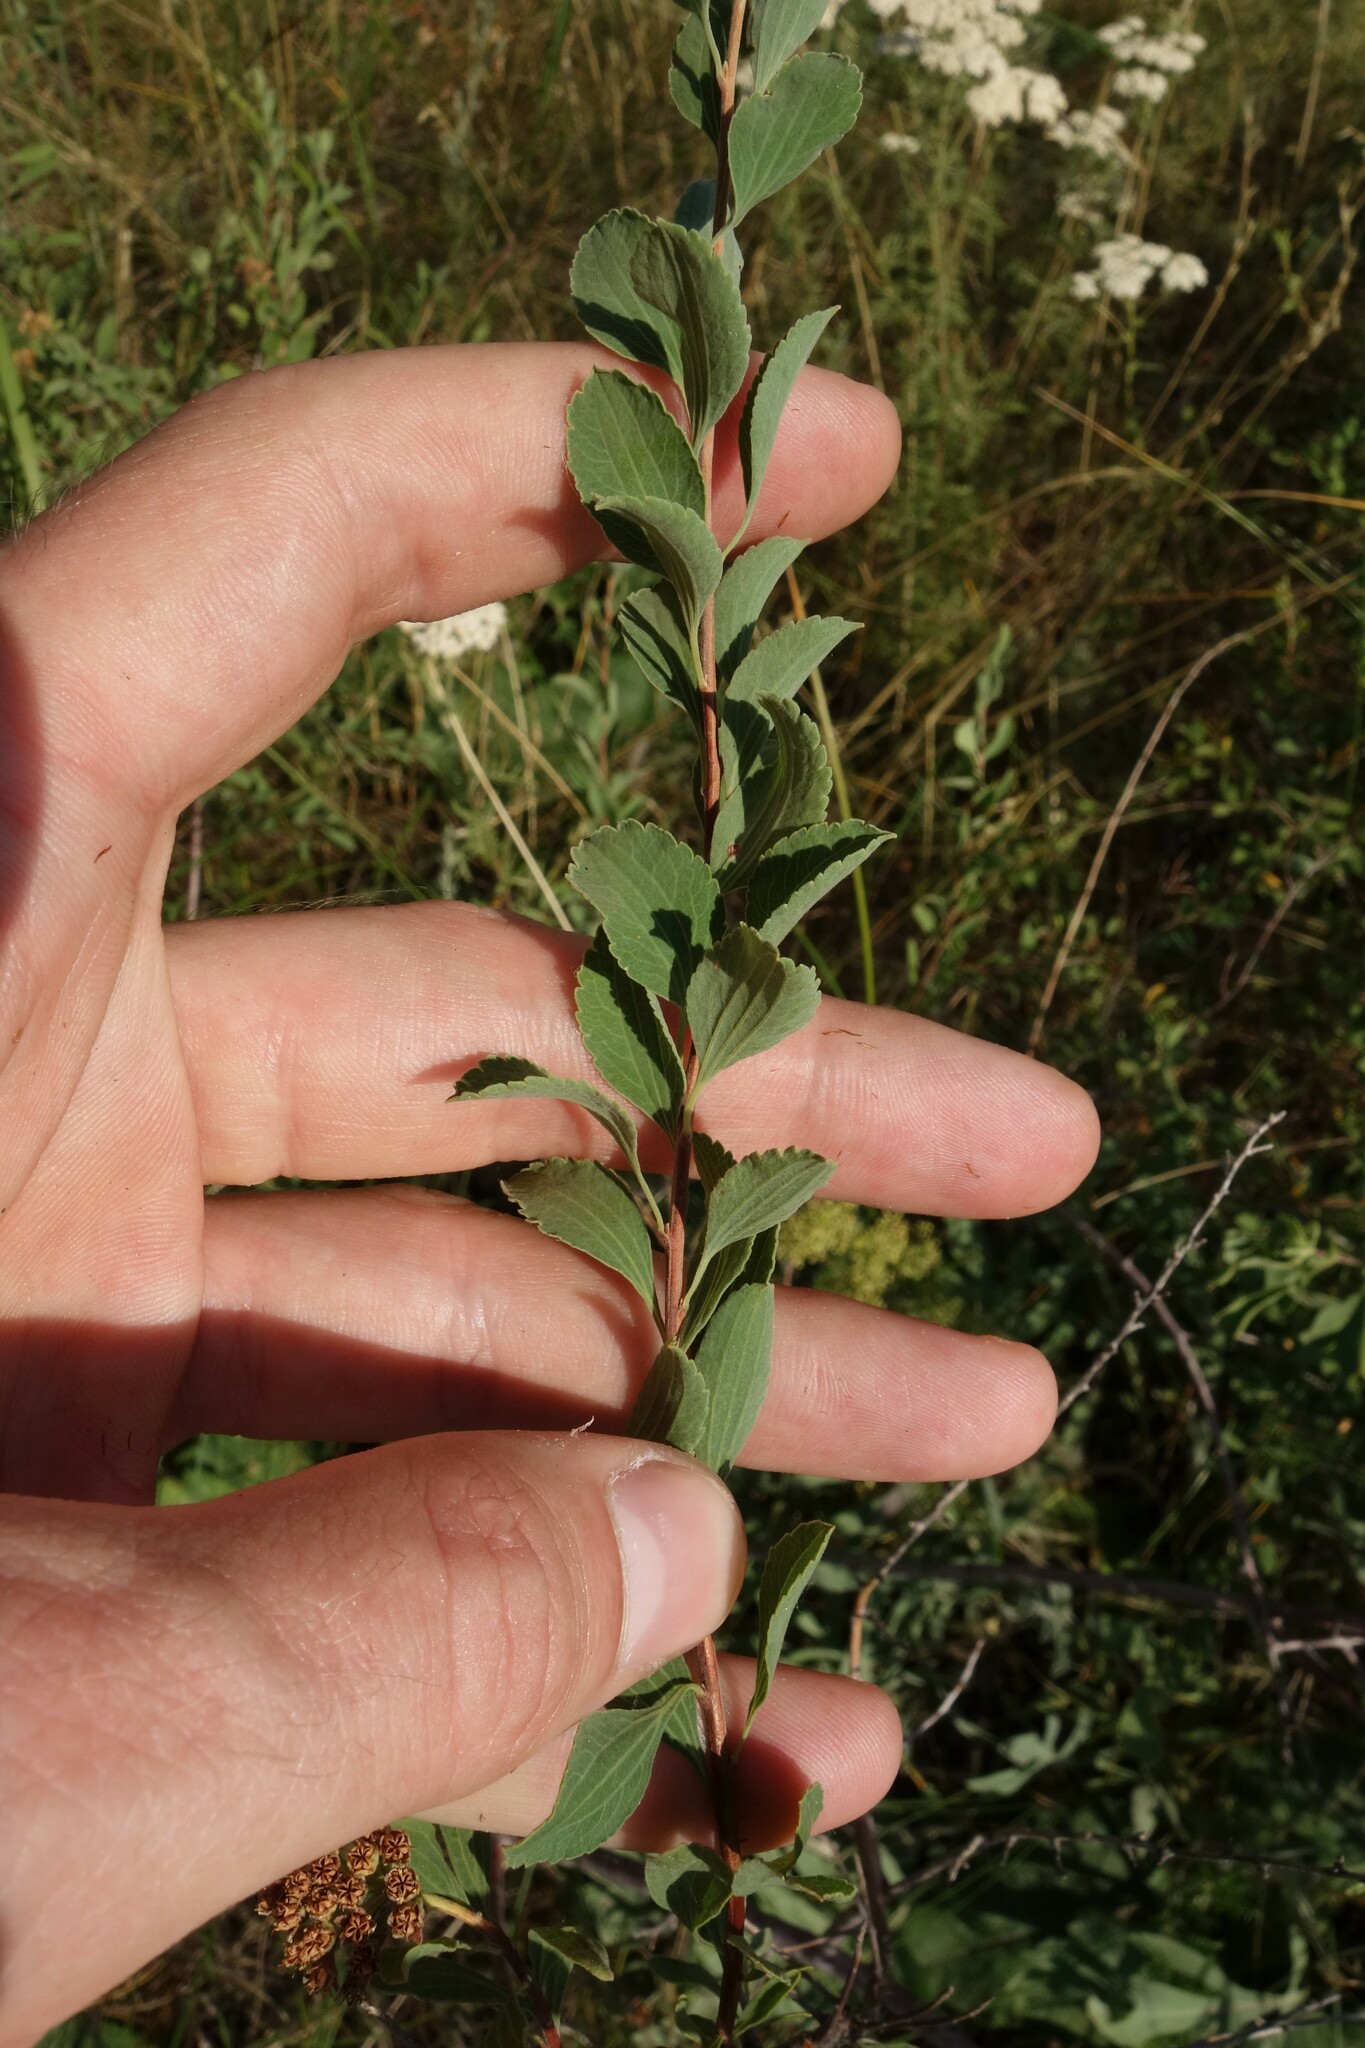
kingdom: Plantae
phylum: Tracheophyta
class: Magnoliopsida
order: Rosales
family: Rosaceae
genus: Spiraea
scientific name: Spiraea crenata
